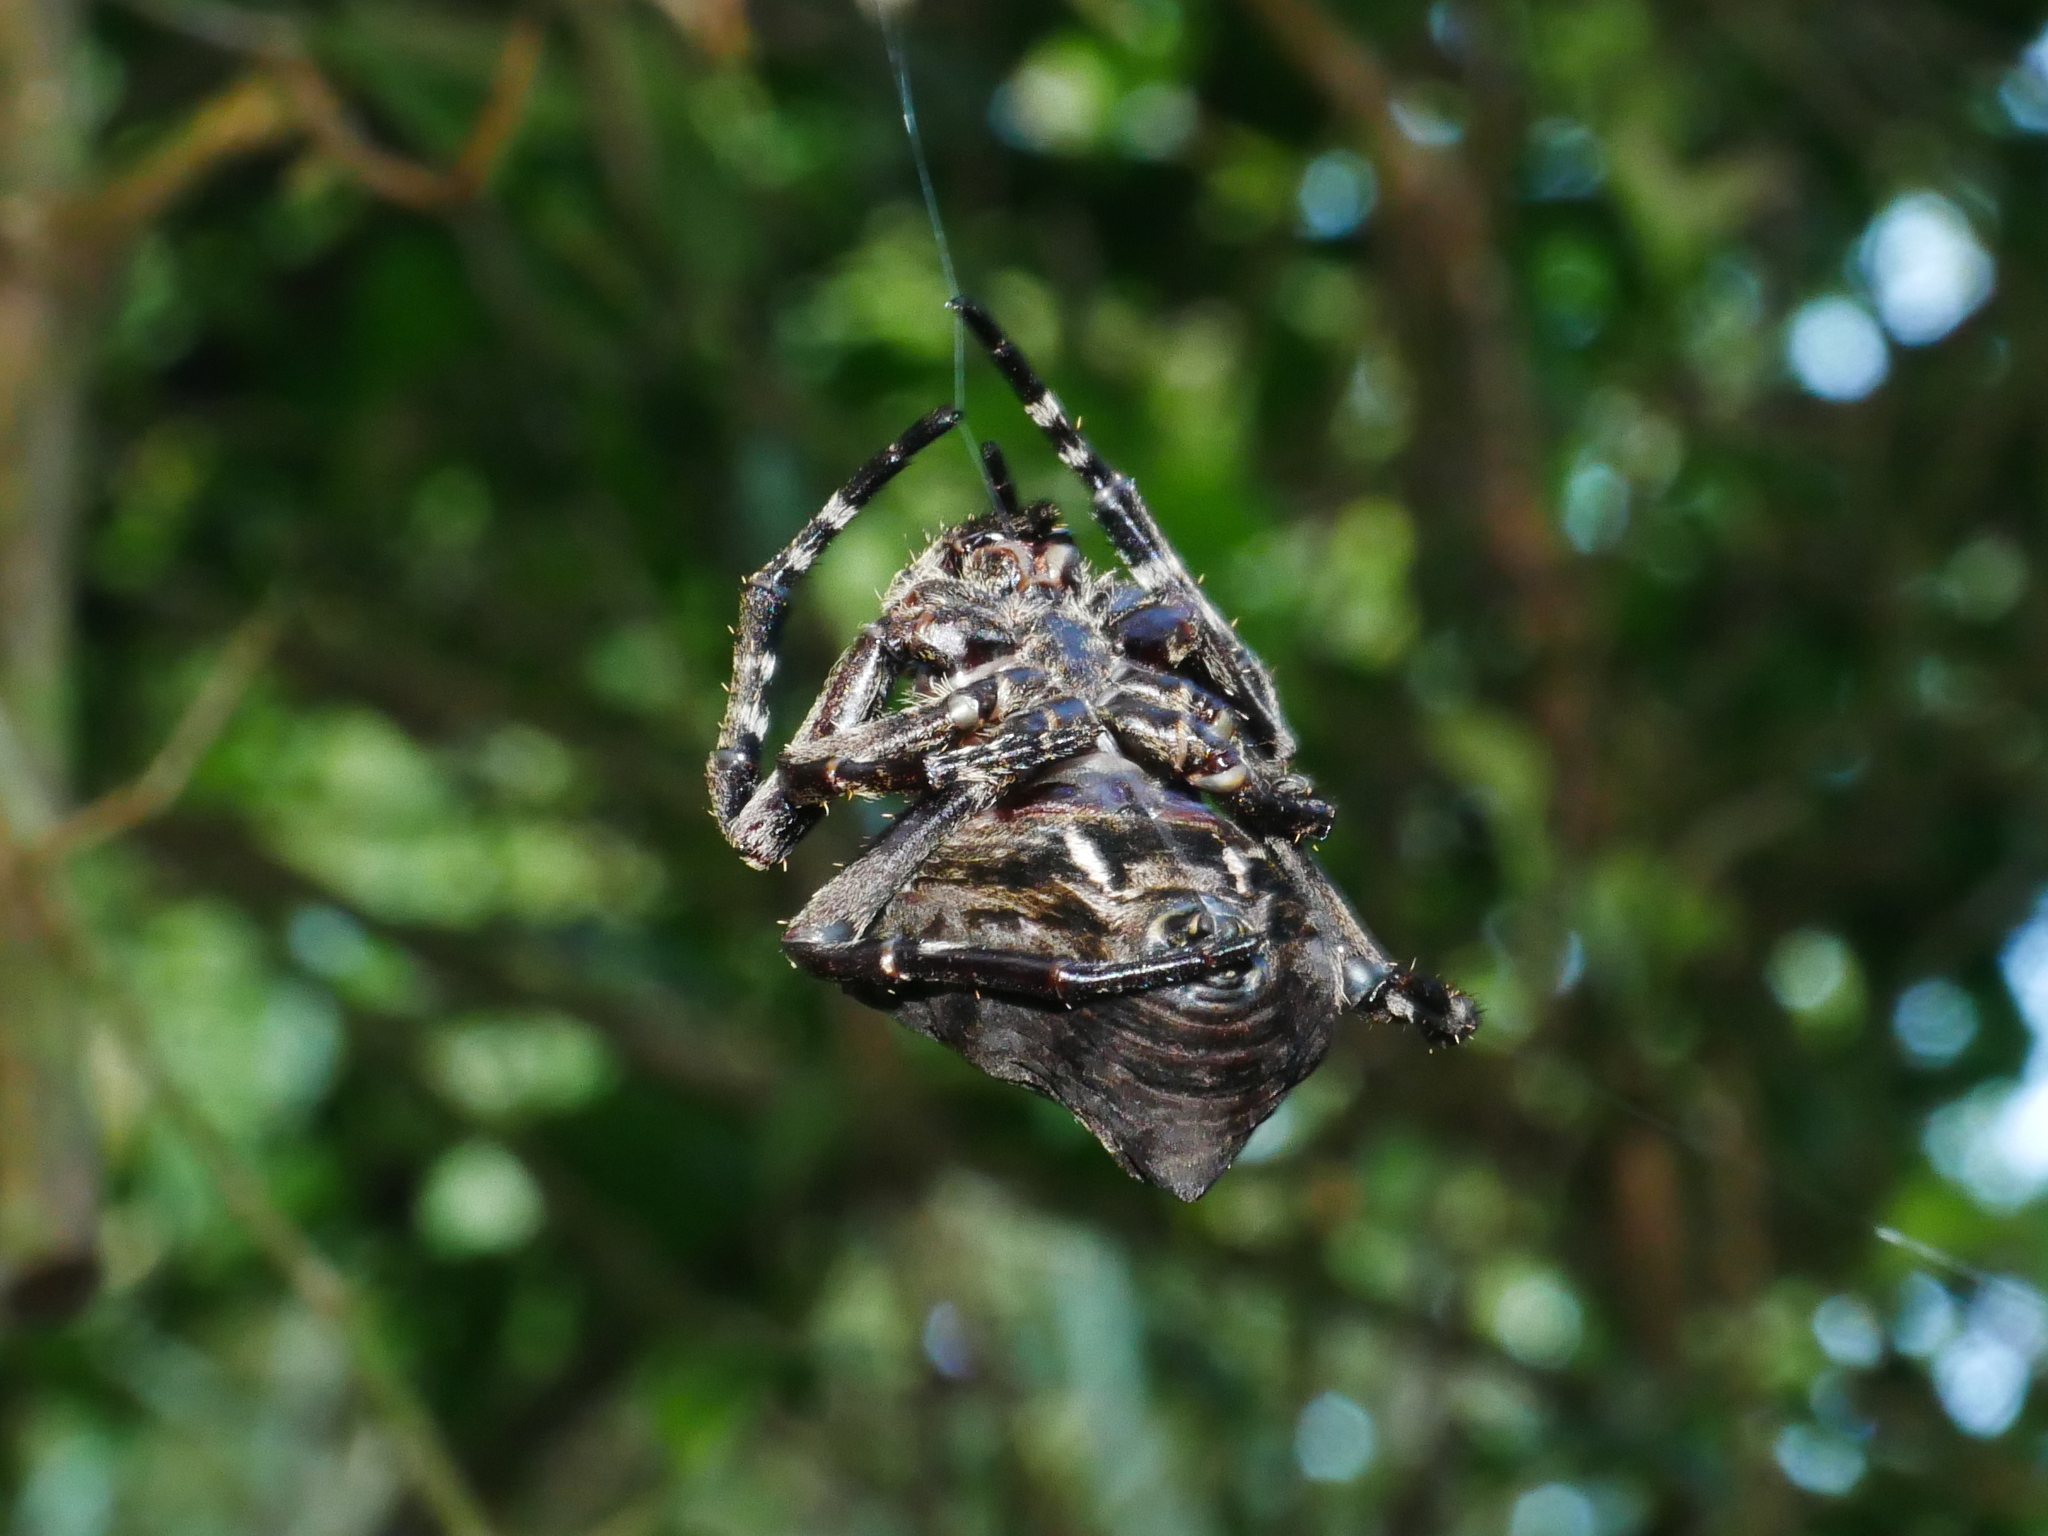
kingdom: Animalia
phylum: Arthropoda
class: Arachnida
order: Araneae
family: Araneidae
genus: Parawixia
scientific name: Parawixia dehaani
